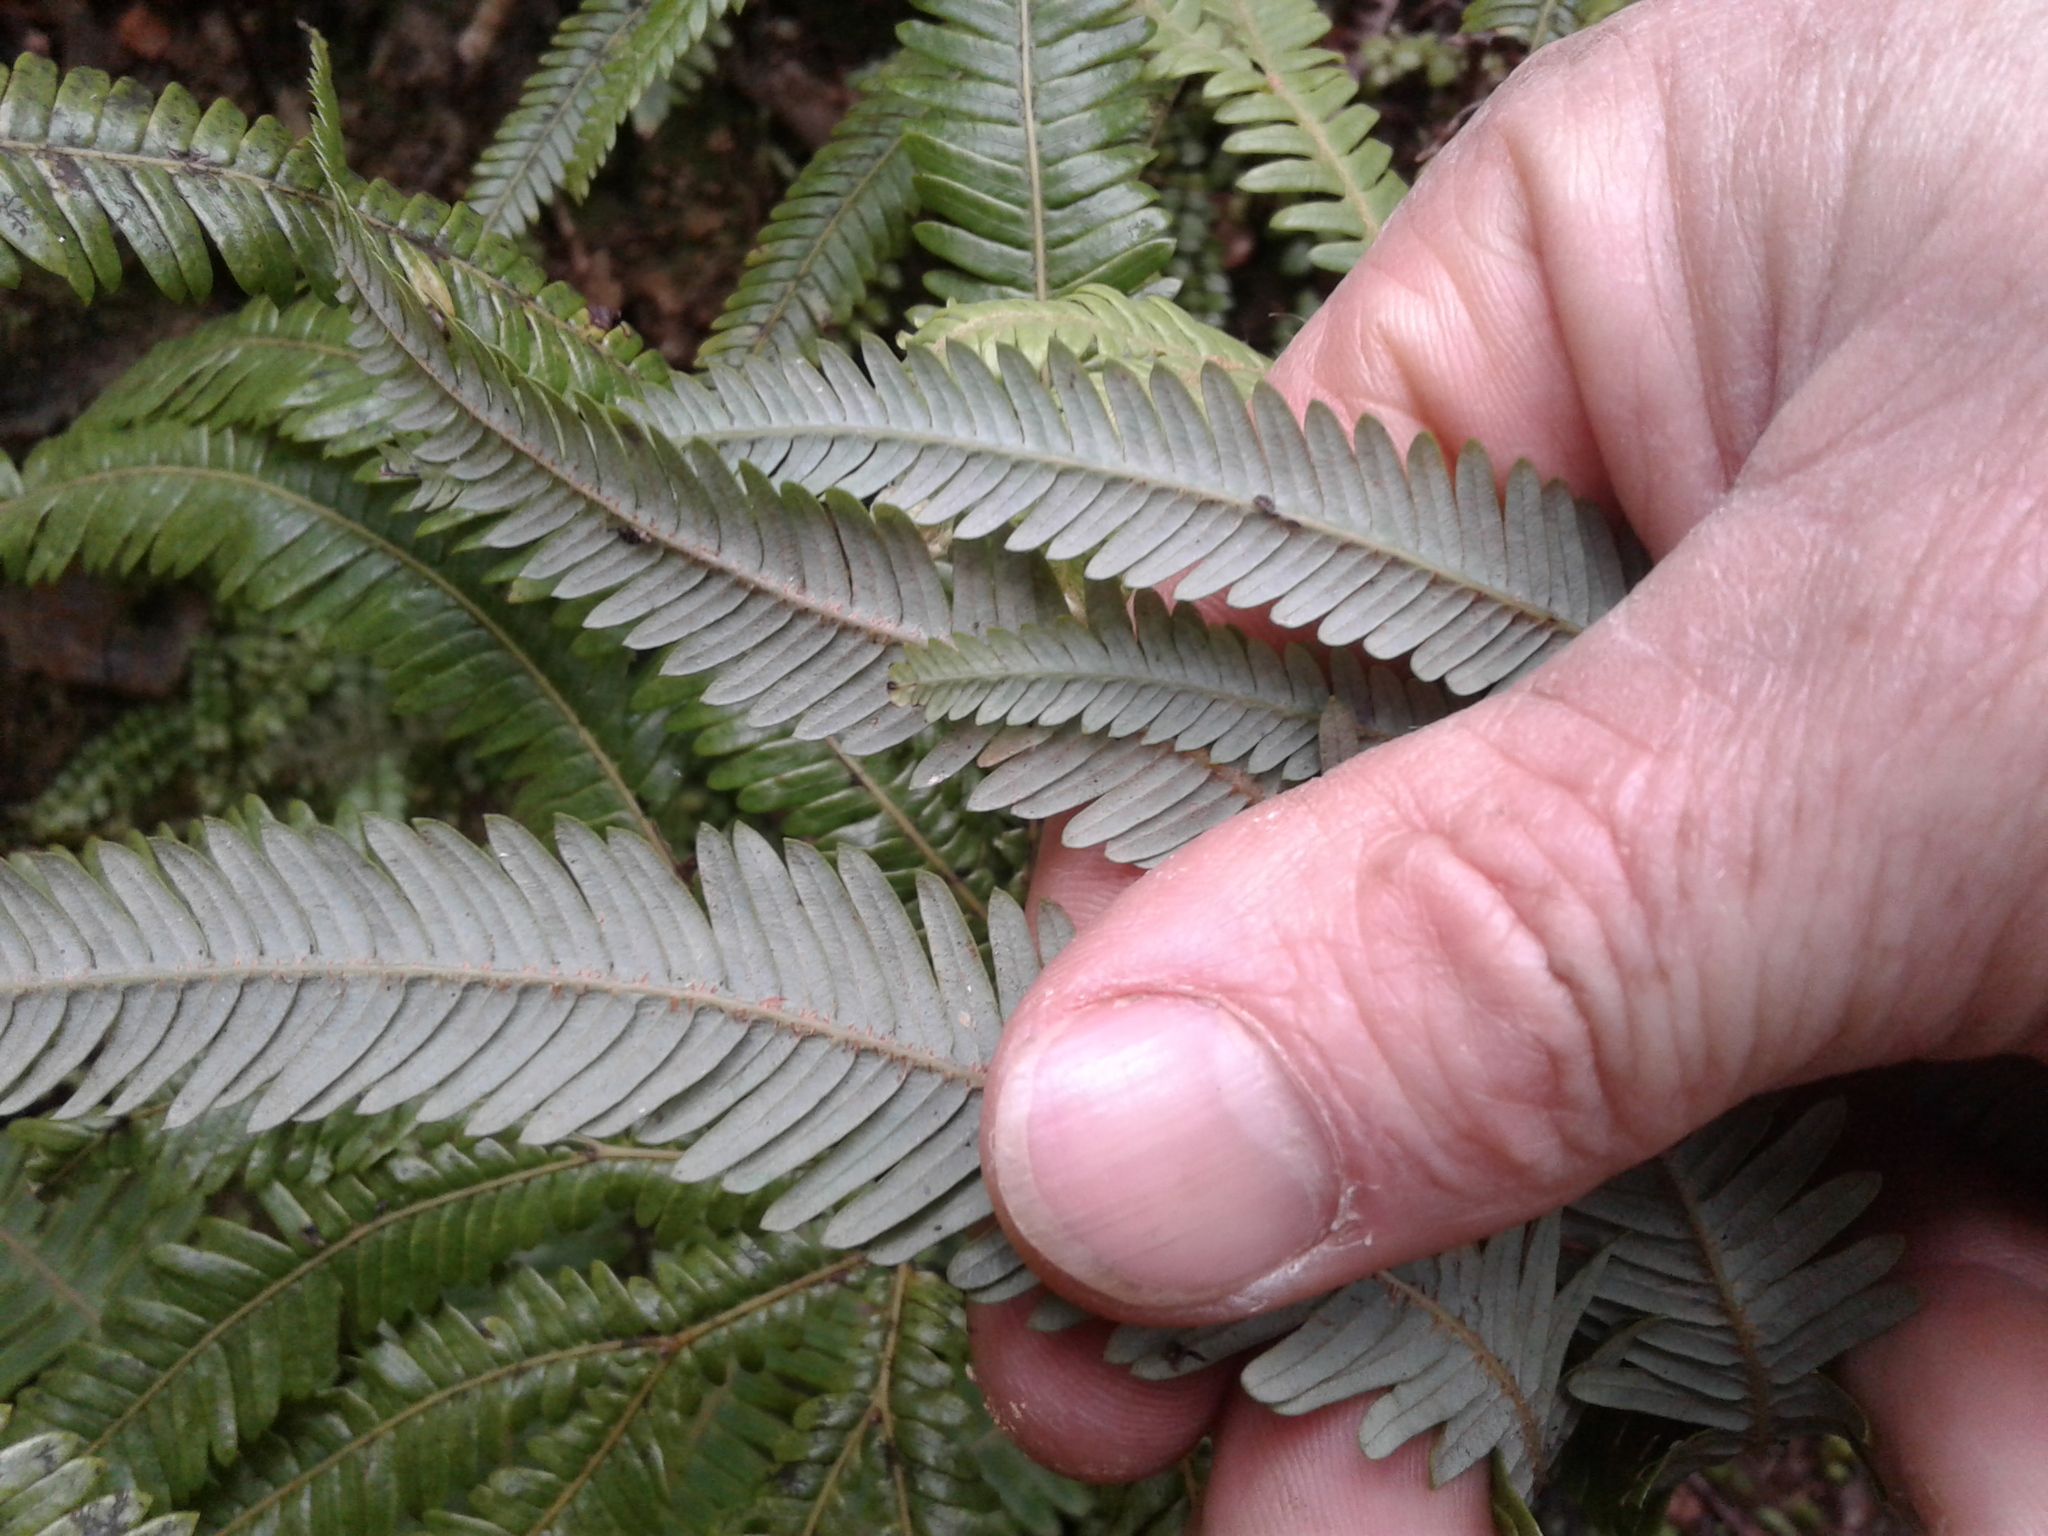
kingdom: Plantae
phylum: Tracheophyta
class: Polypodiopsida
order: Gleicheniales
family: Gleicheniaceae
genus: Sticherus
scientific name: Sticherus cunninghamii
